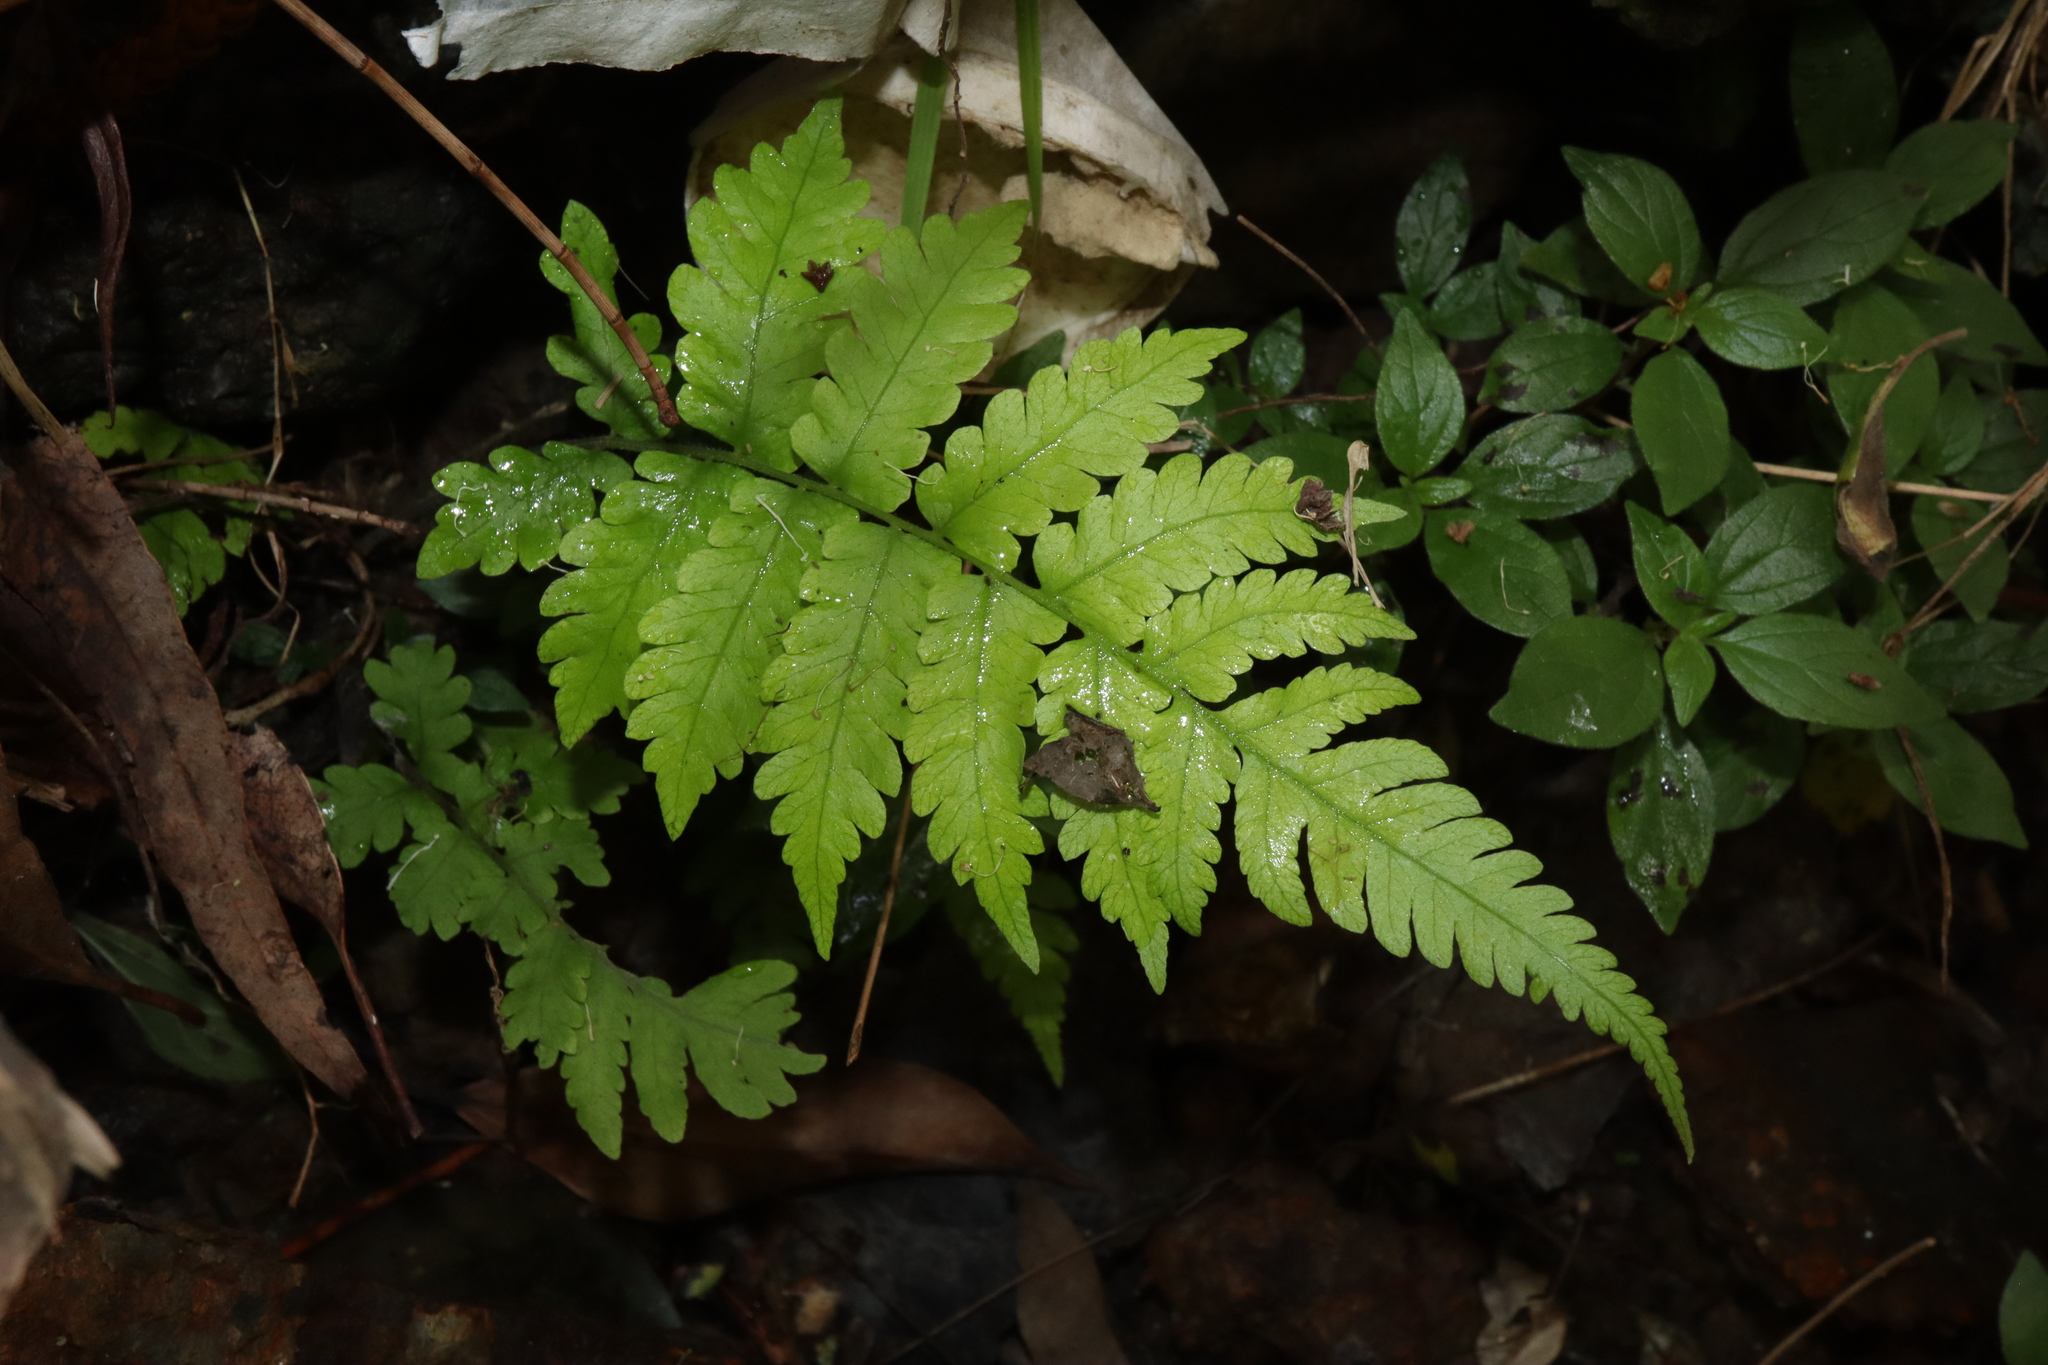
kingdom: Plantae
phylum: Tracheophyta
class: Polypodiopsida
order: Polypodiales
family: Thelypteridaceae
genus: Christella
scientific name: Christella dentata
